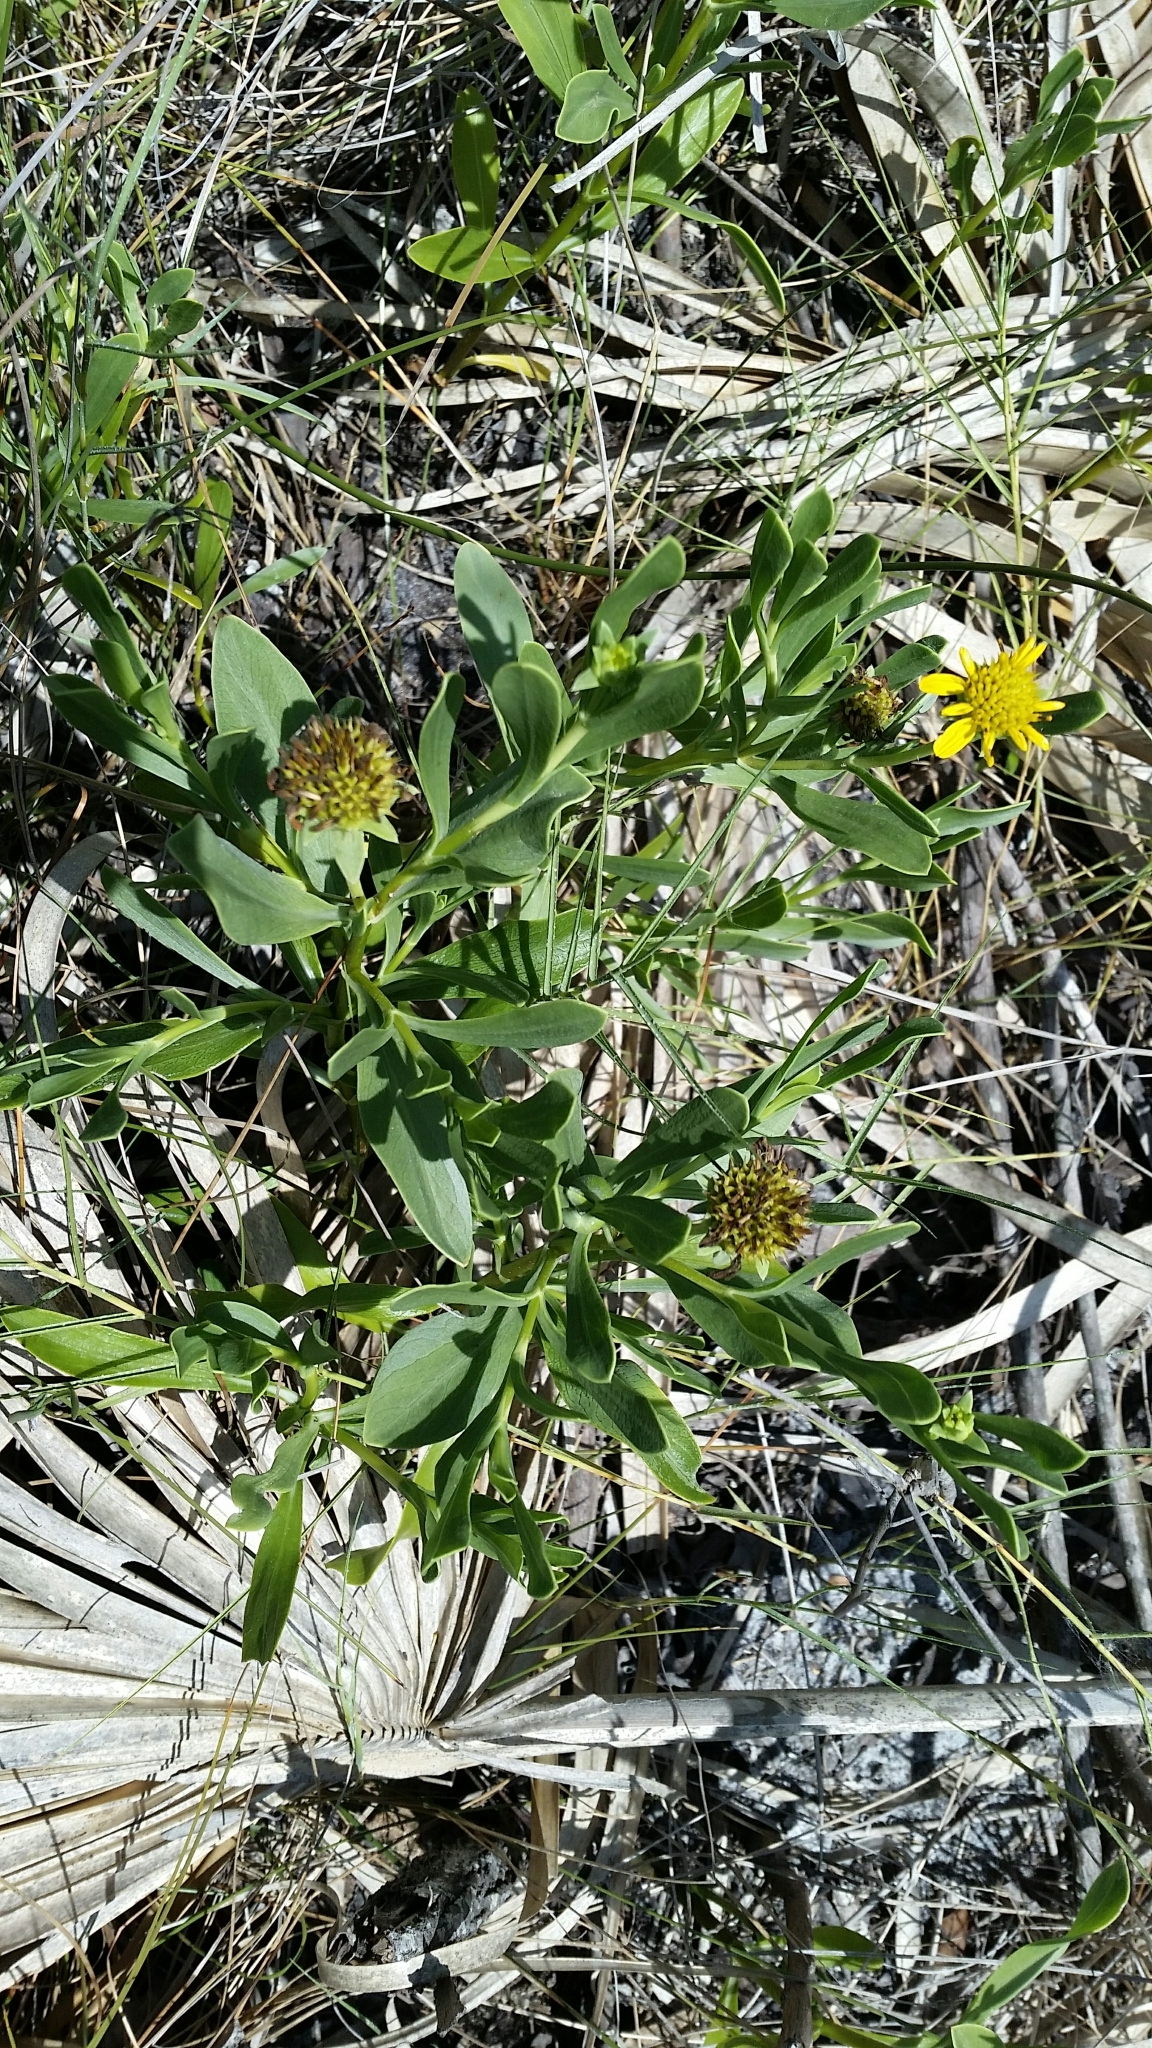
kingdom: Plantae
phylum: Tracheophyta
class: Magnoliopsida
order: Asterales
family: Asteraceae
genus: Borrichia
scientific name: Borrichia frutescens
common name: Sea oxeye
